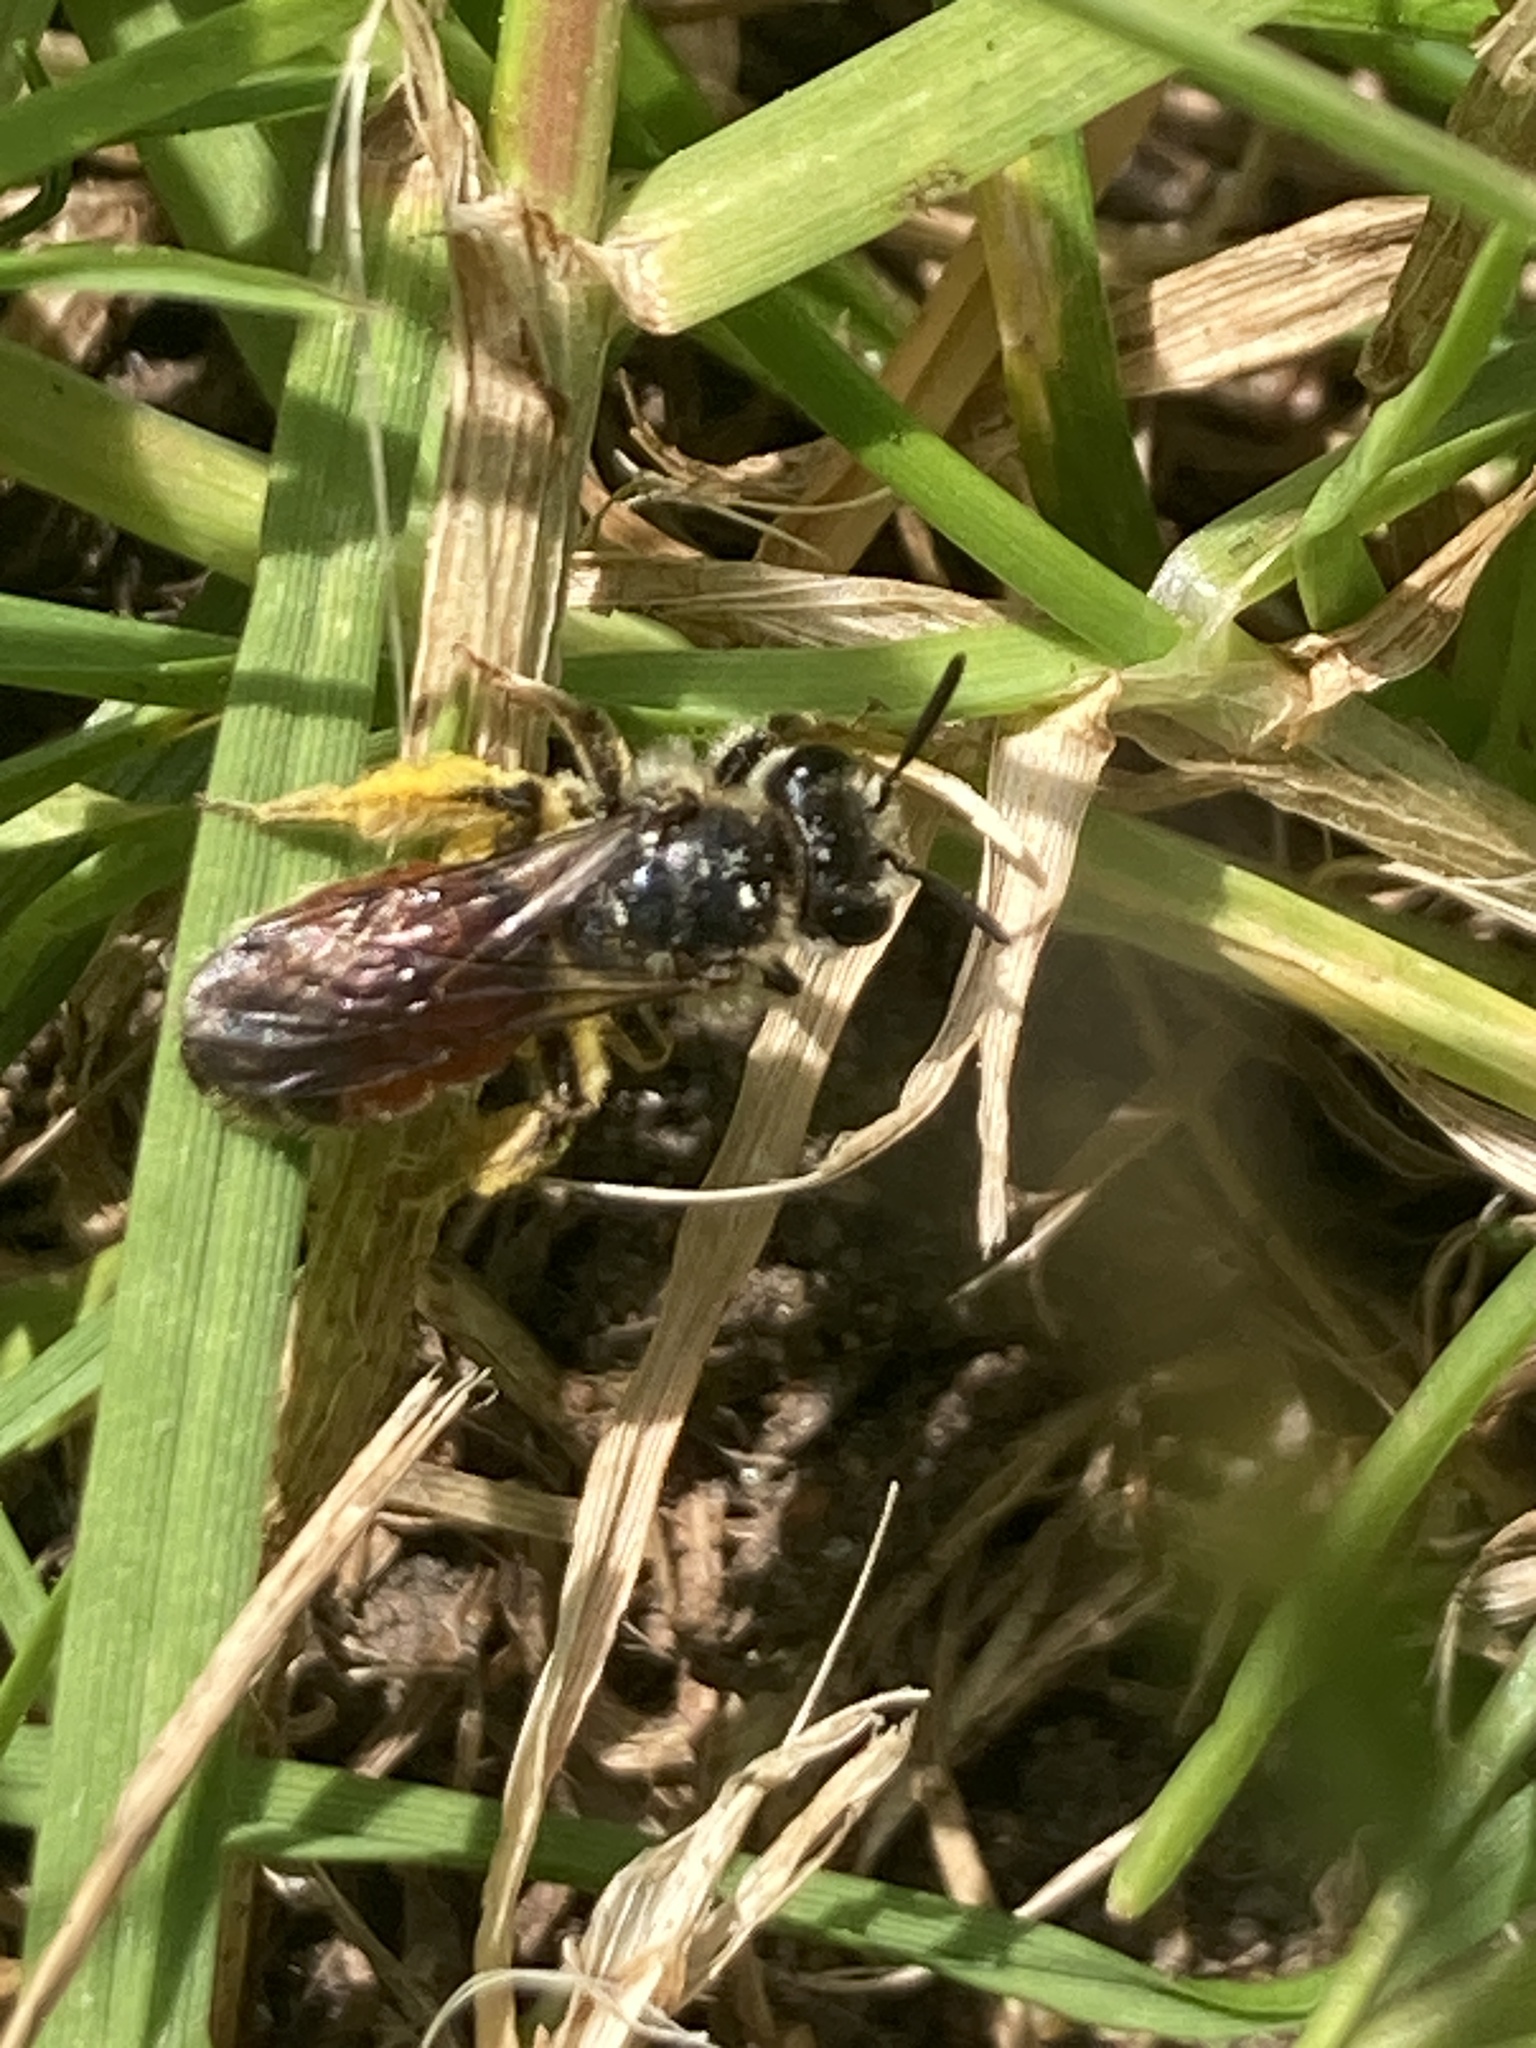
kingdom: Animalia
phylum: Arthropoda
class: Insecta
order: Hymenoptera
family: Andrenidae
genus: Andrena
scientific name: Andrena labiata
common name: Red-girdled mining bee
